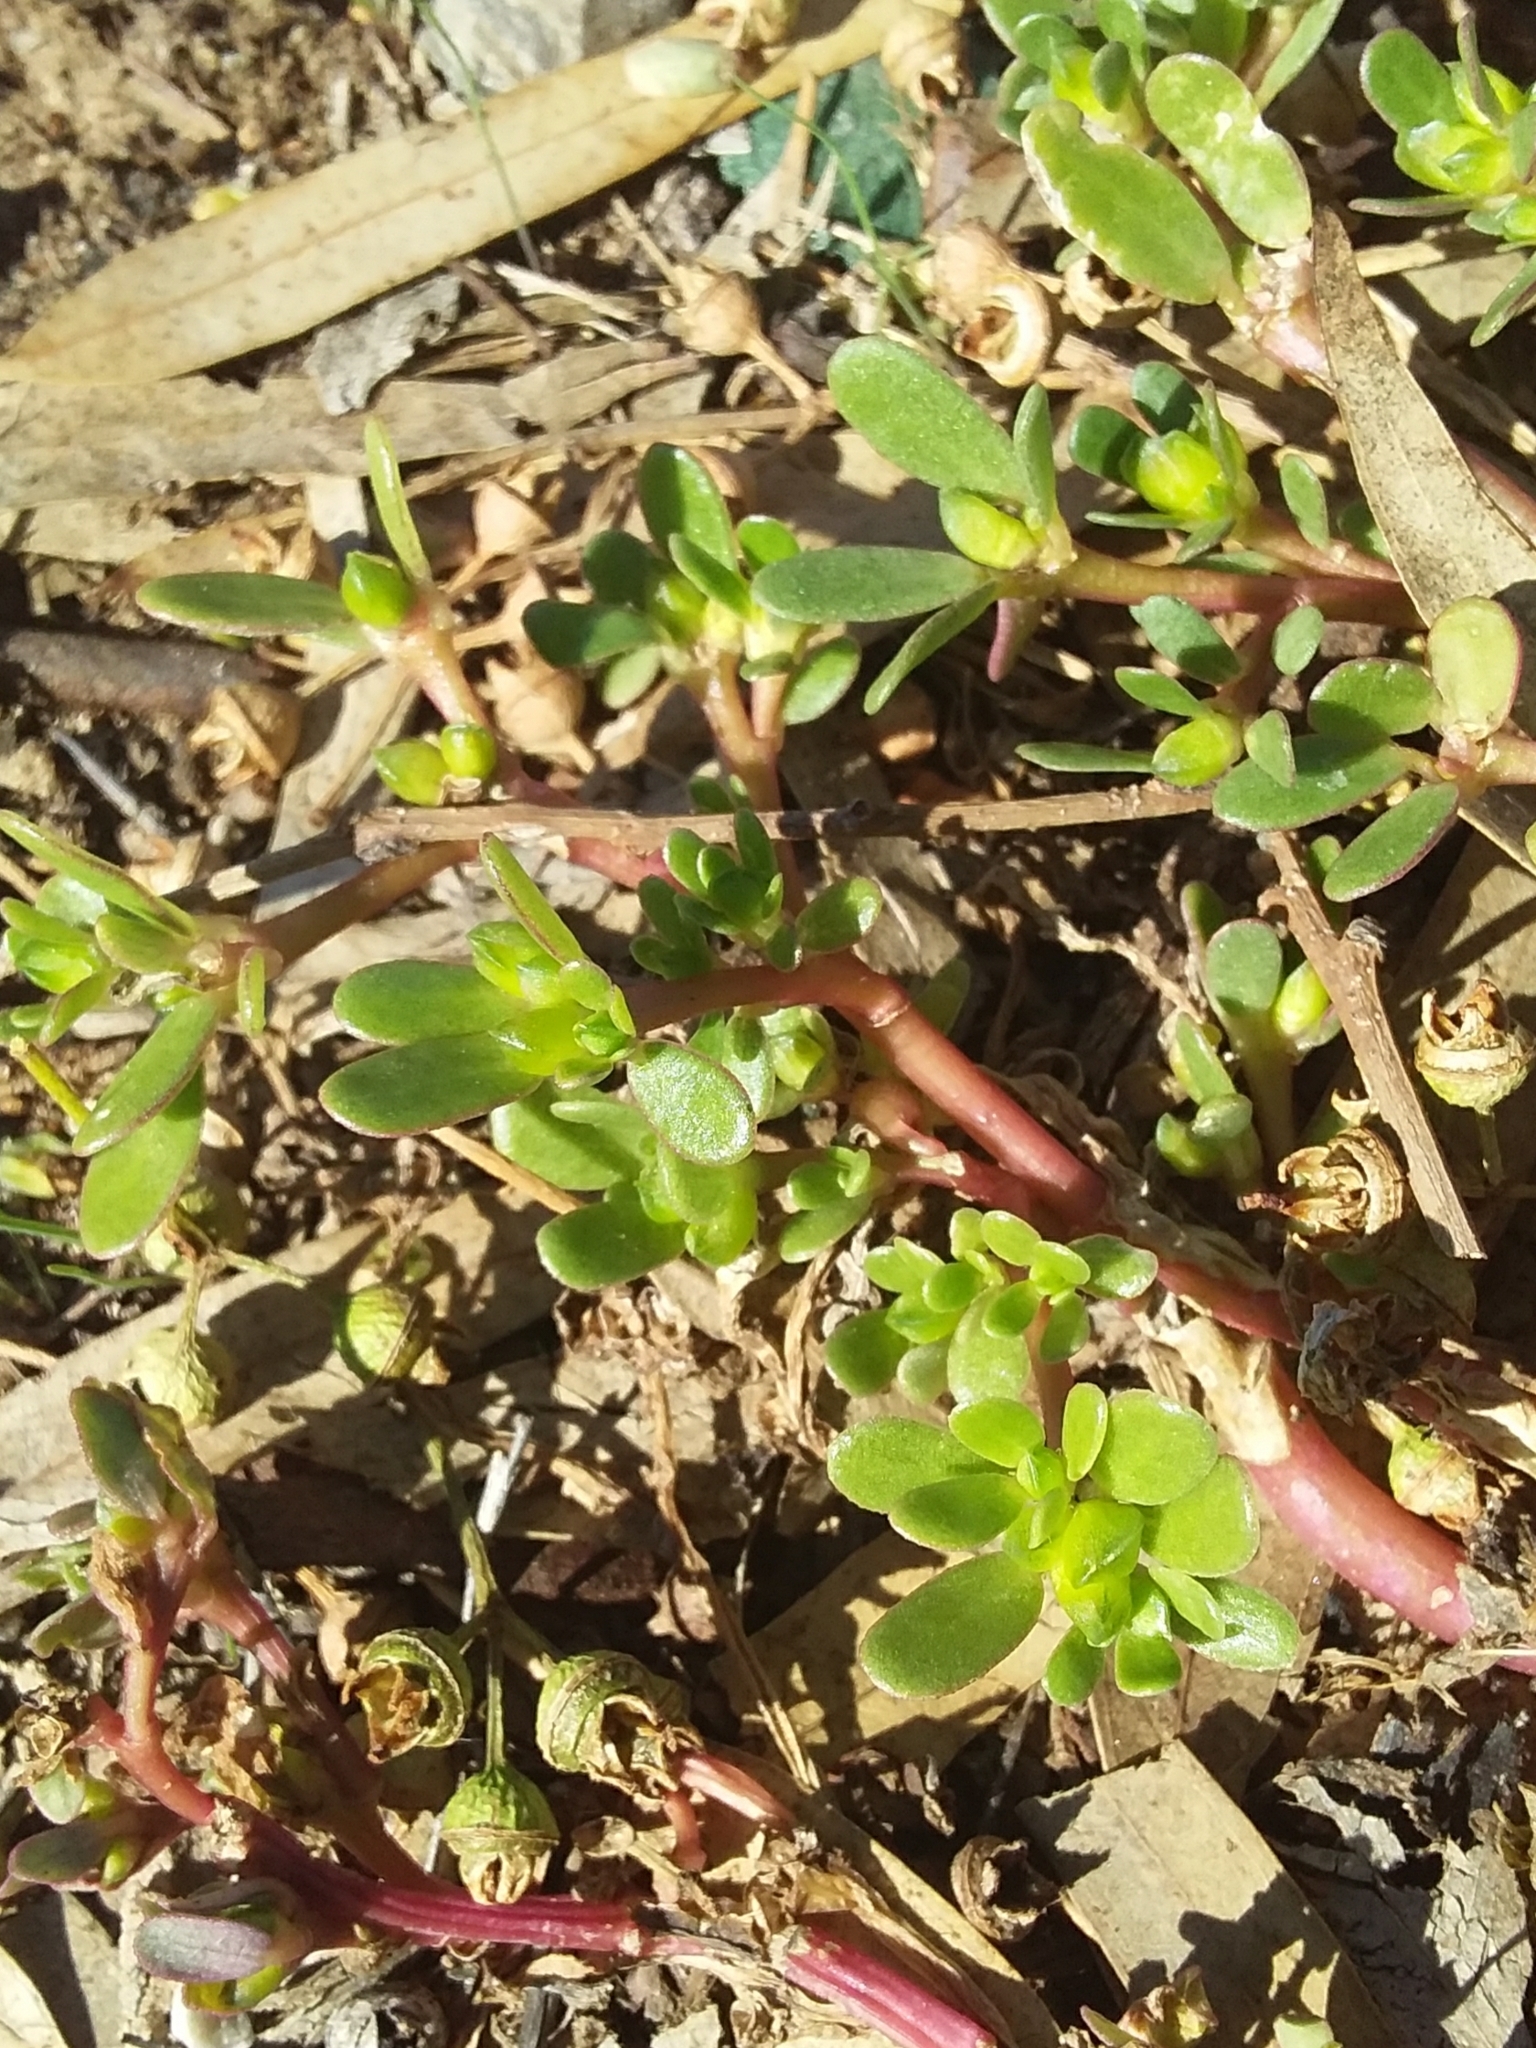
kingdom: Plantae
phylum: Tracheophyta
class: Magnoliopsida
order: Caryophyllales
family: Portulacaceae
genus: Portulaca
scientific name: Portulaca oleracea
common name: Common purslane
